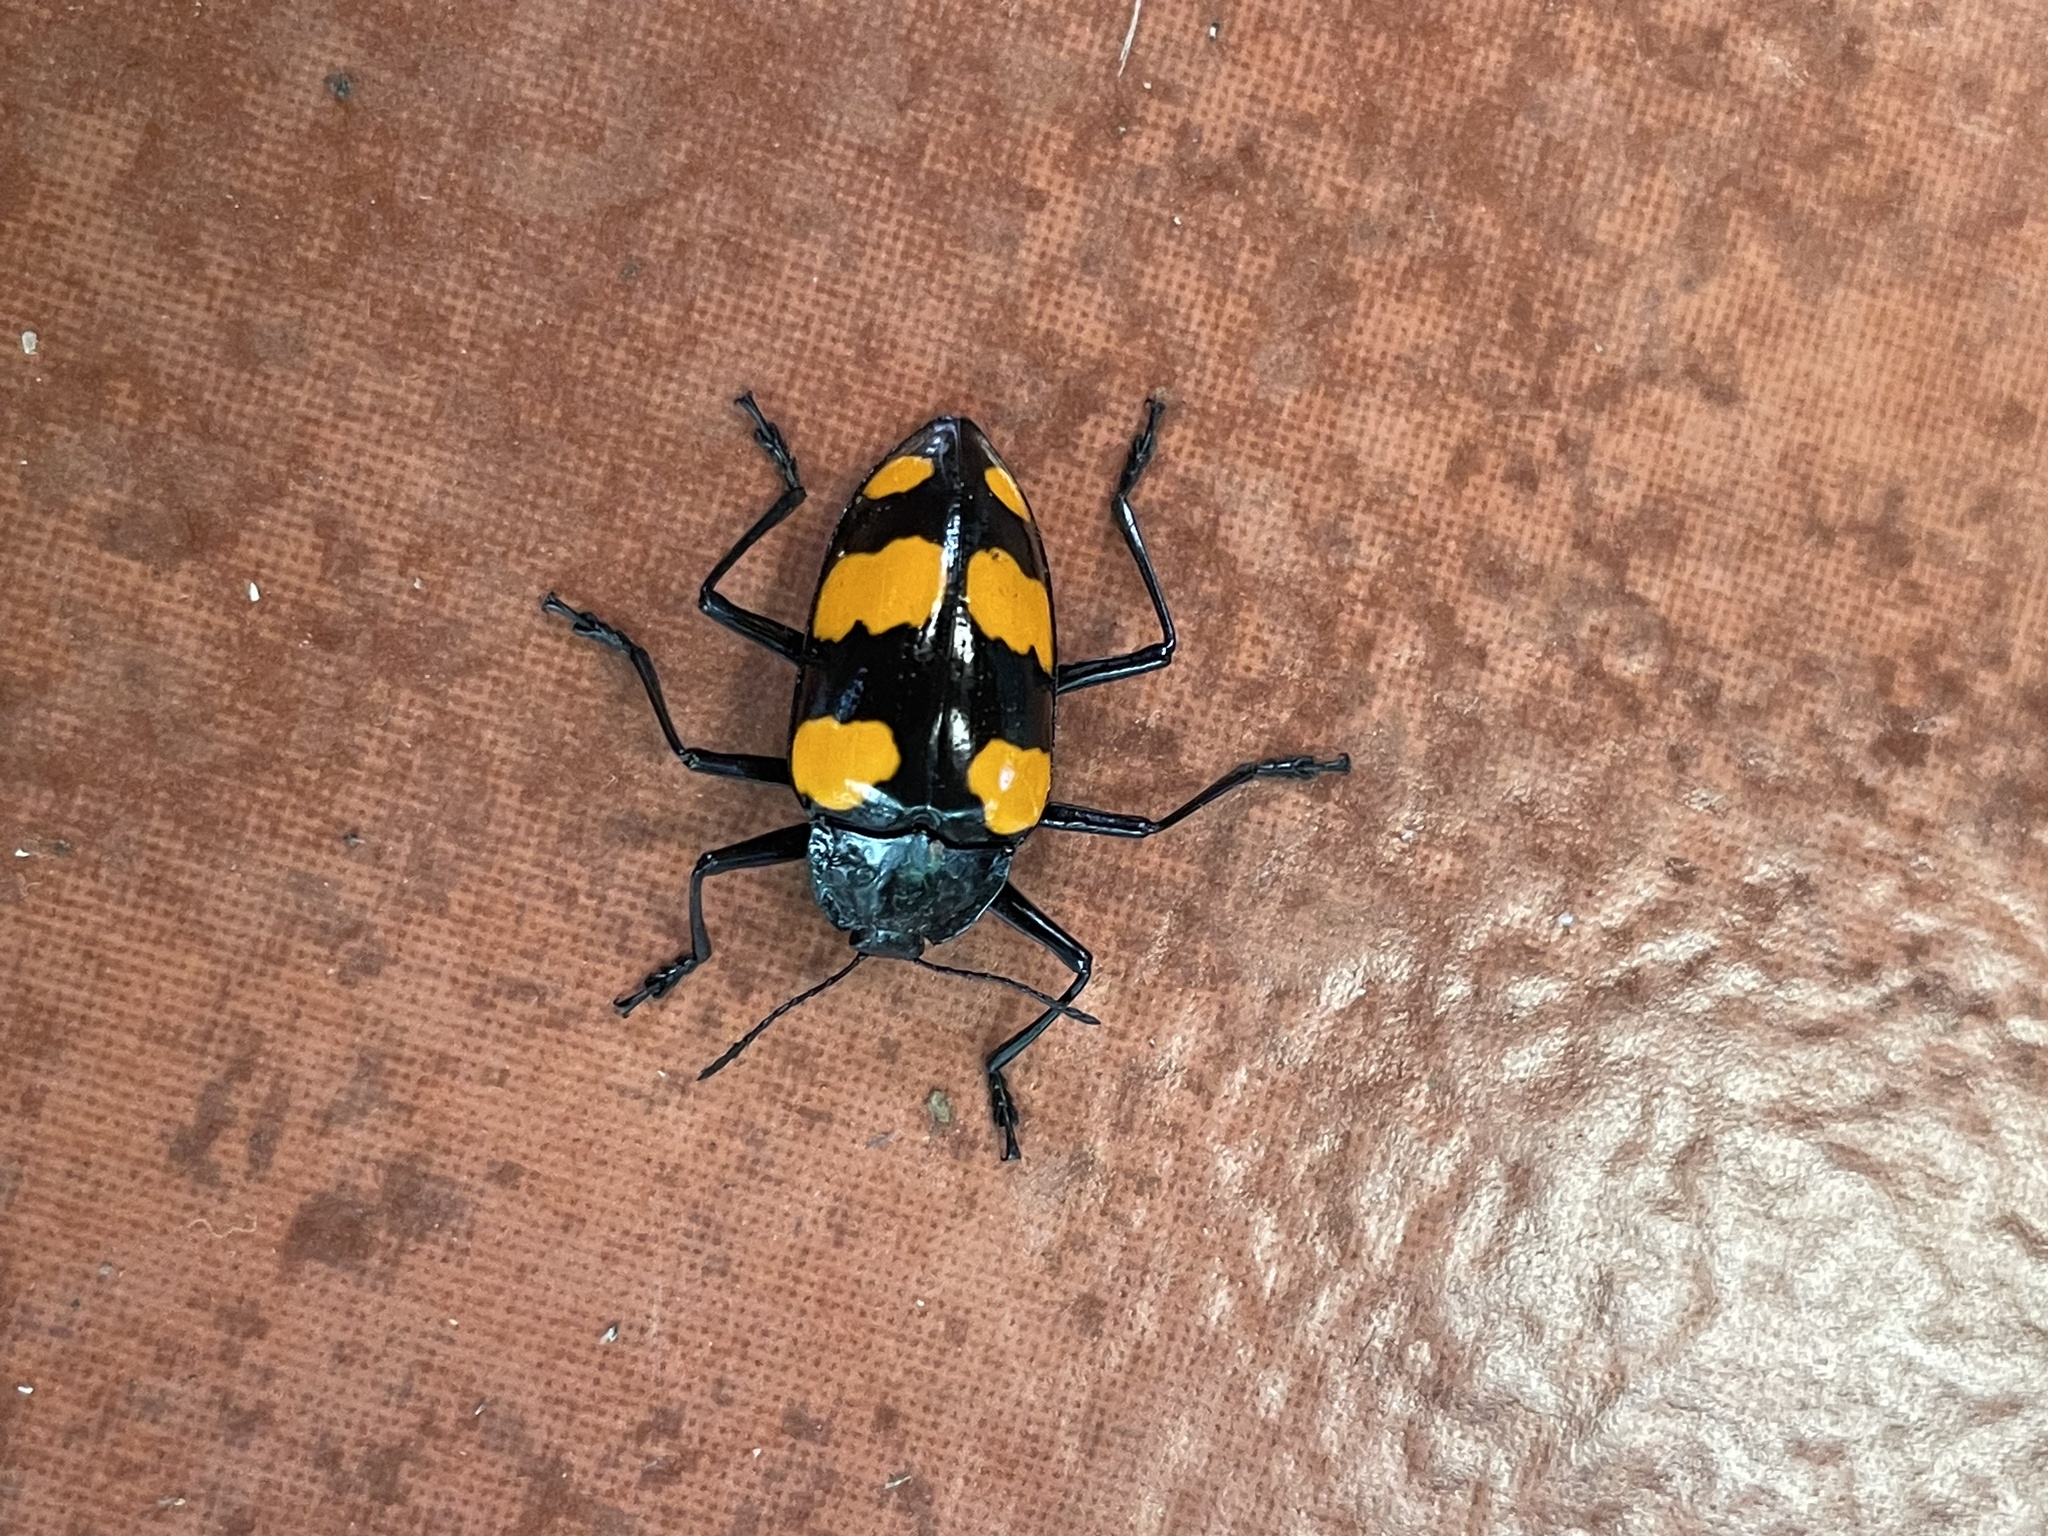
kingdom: Animalia
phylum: Arthropoda
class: Insecta
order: Coleoptera
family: Erotylidae
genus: Scaphidomorphus
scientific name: Scaphidomorphus bosci
